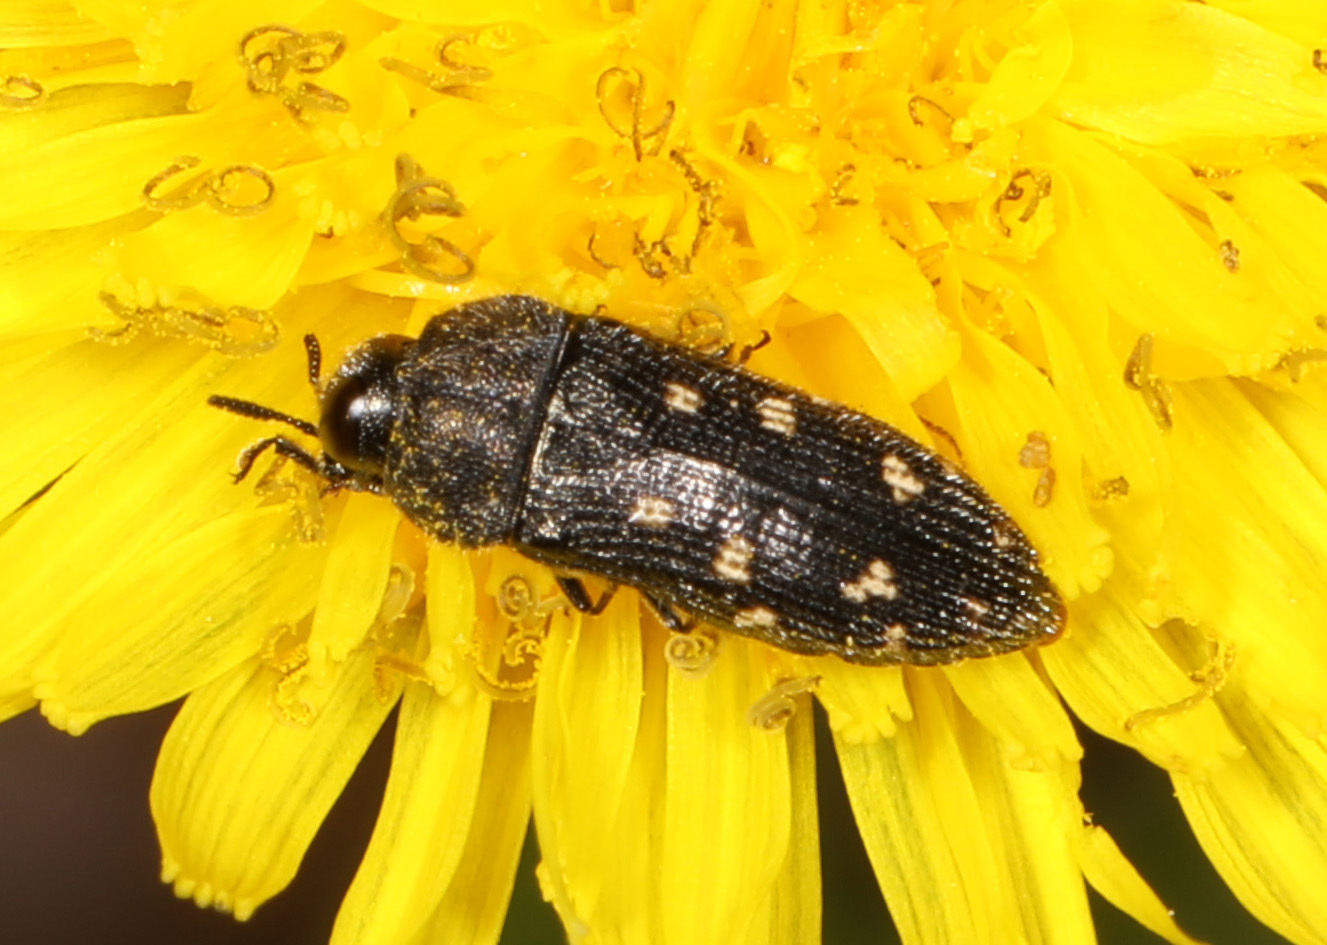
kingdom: Animalia
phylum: Arthropoda
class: Insecta
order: Coleoptera
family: Buprestidae
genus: Acmaeodera
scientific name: Acmaeodera tubulus
